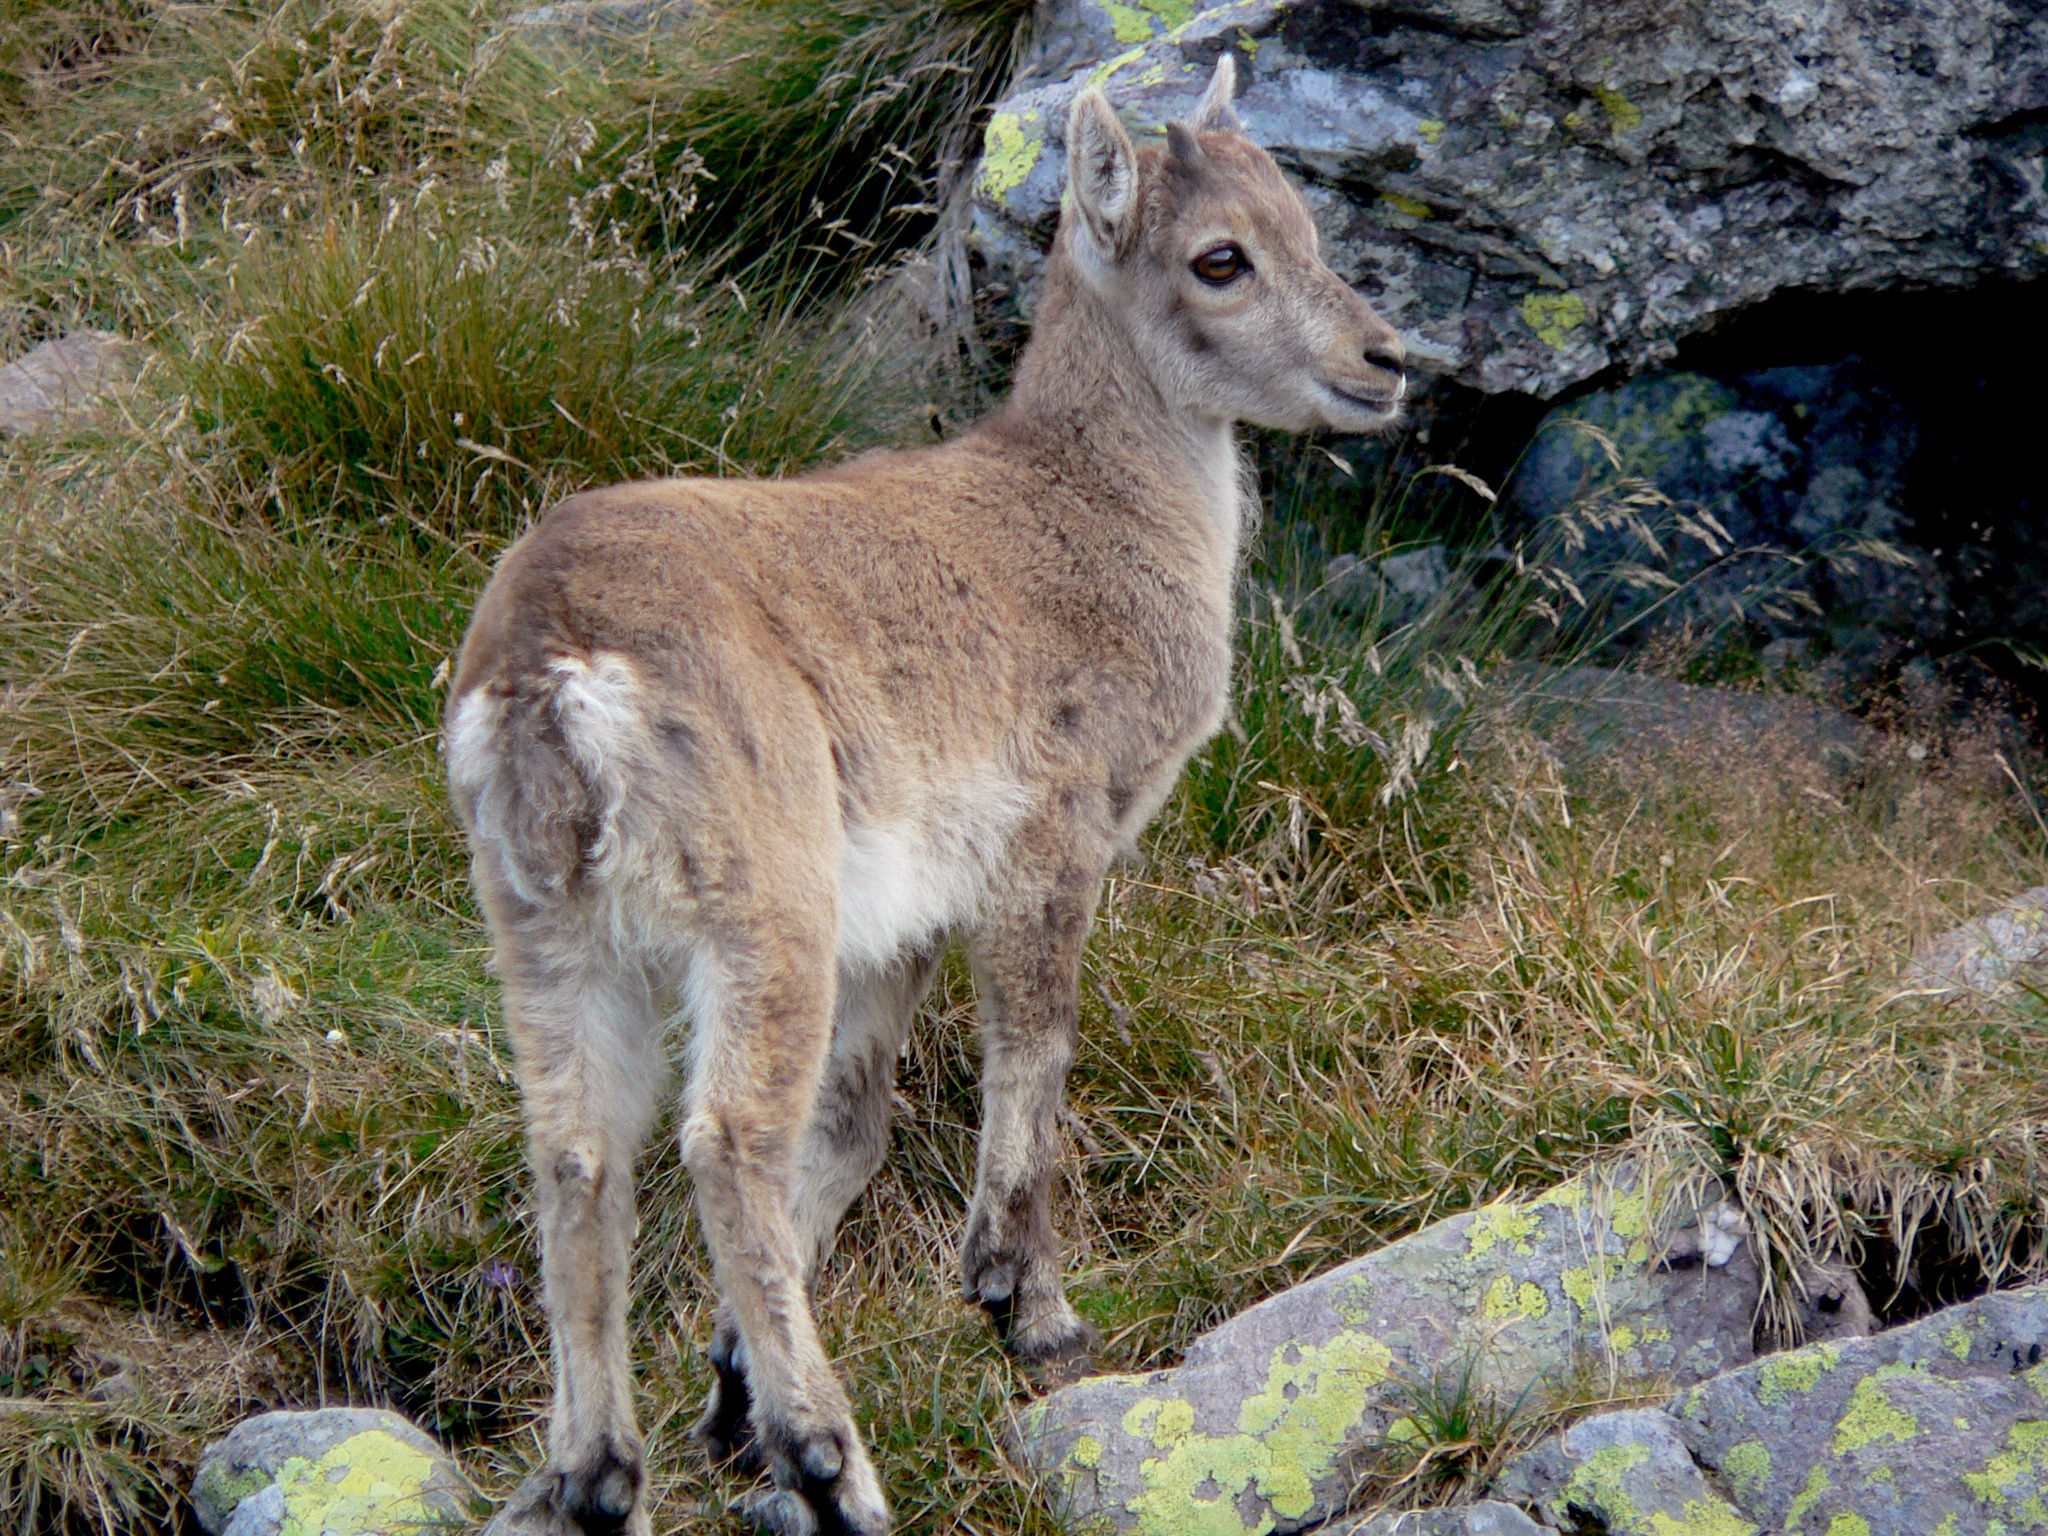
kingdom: Animalia
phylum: Chordata
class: Mammalia
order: Artiodactyla
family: Bovidae
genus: Capra
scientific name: Capra ibex
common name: Alpine ibex
